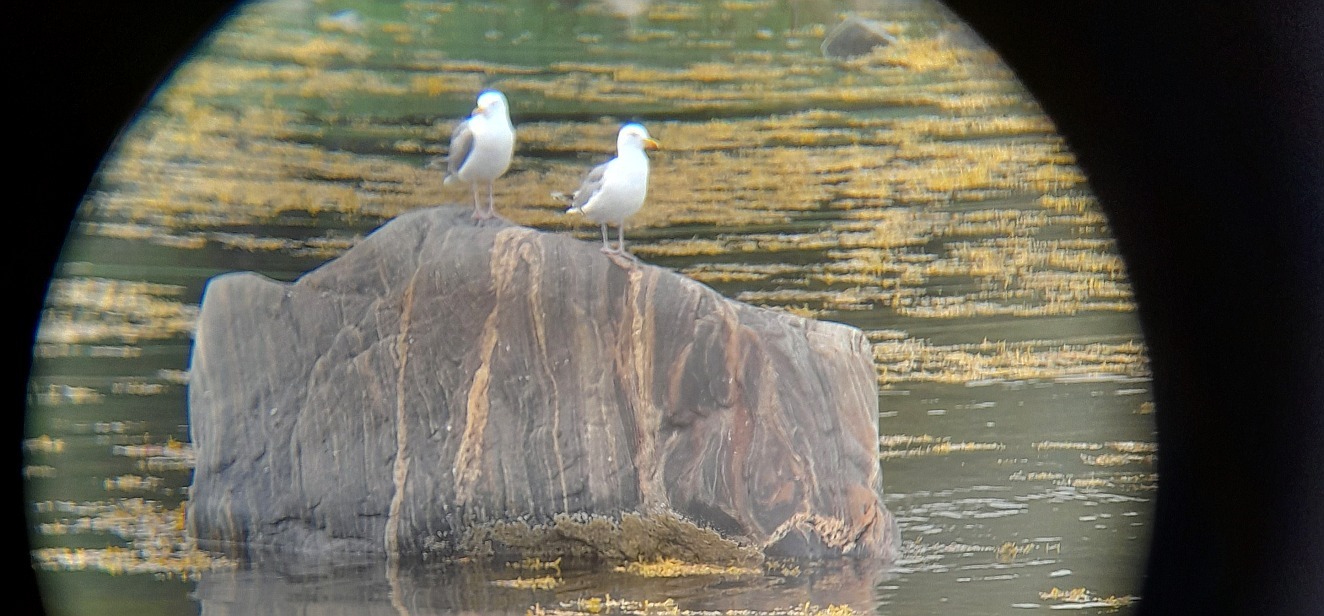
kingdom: Animalia
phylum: Chordata
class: Aves
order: Charadriiformes
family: Laridae
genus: Larus
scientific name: Larus argentatus
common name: Herring gull
